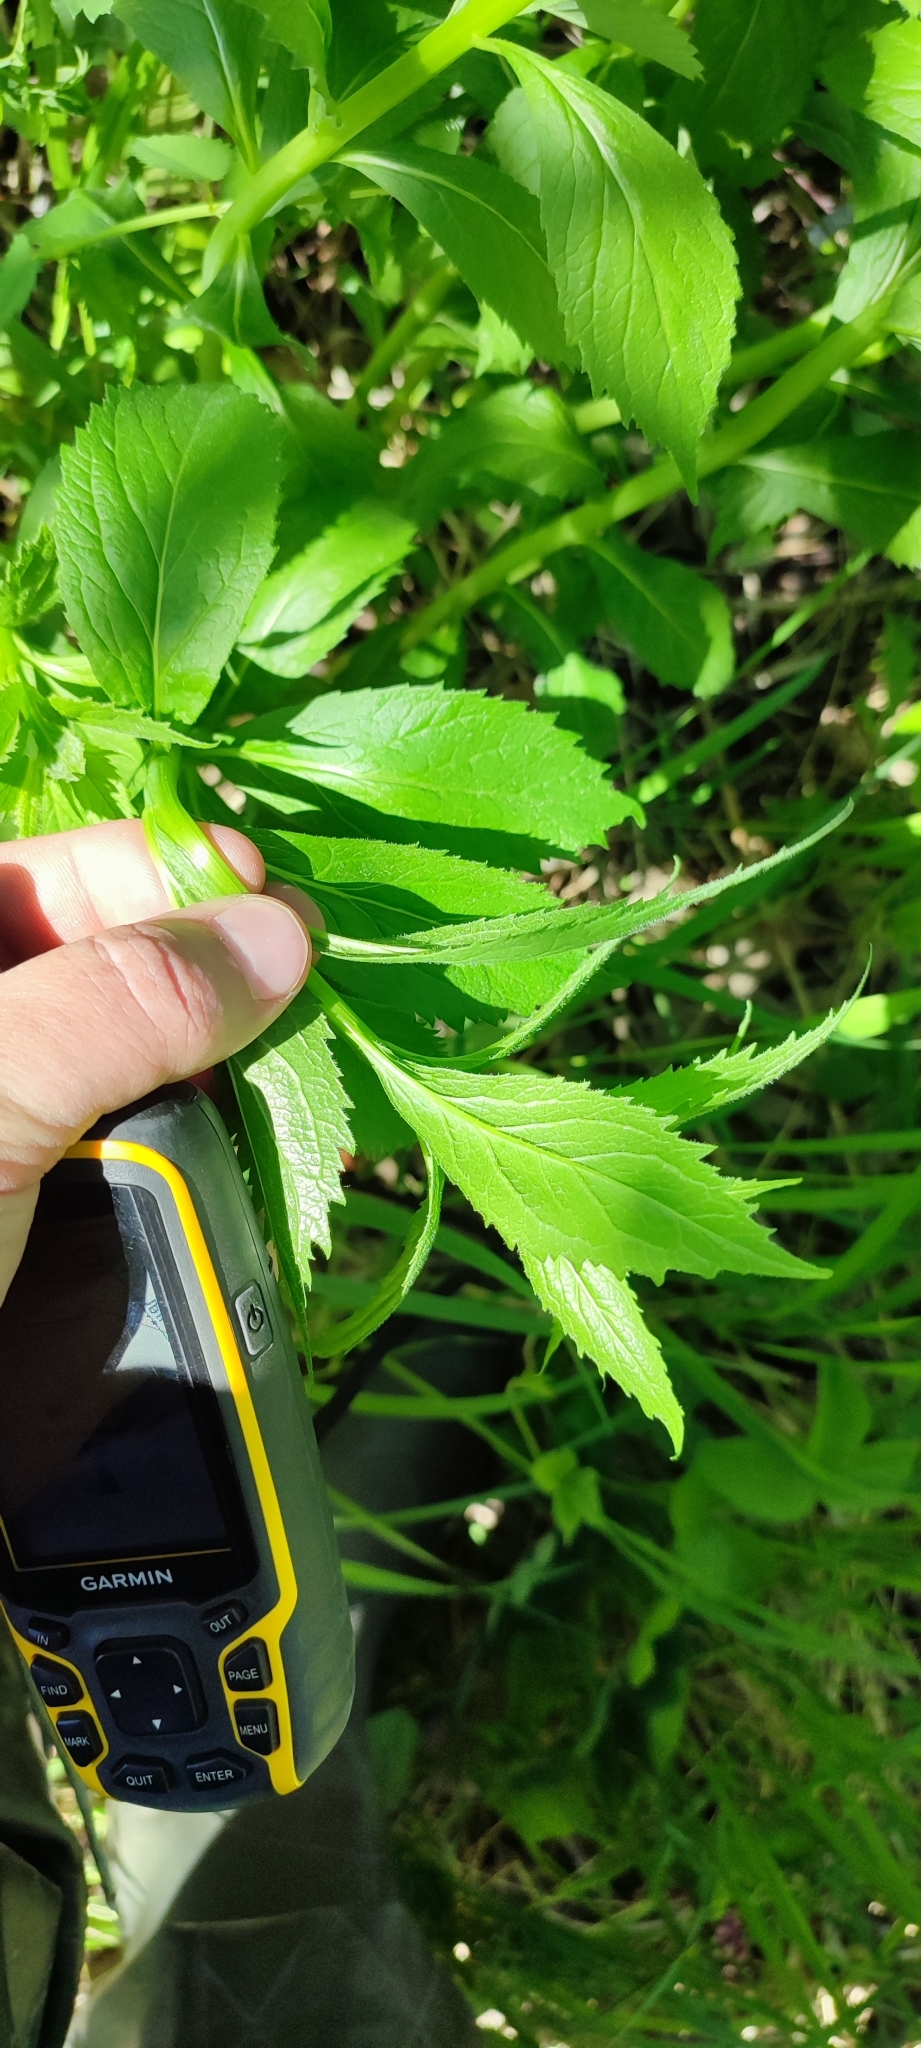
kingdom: Plantae
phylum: Tracheophyta
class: Magnoliopsida
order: Asterales
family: Campanulaceae
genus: Adenophora
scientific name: Adenophora liliifolia
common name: Lilyleaf ladybells
